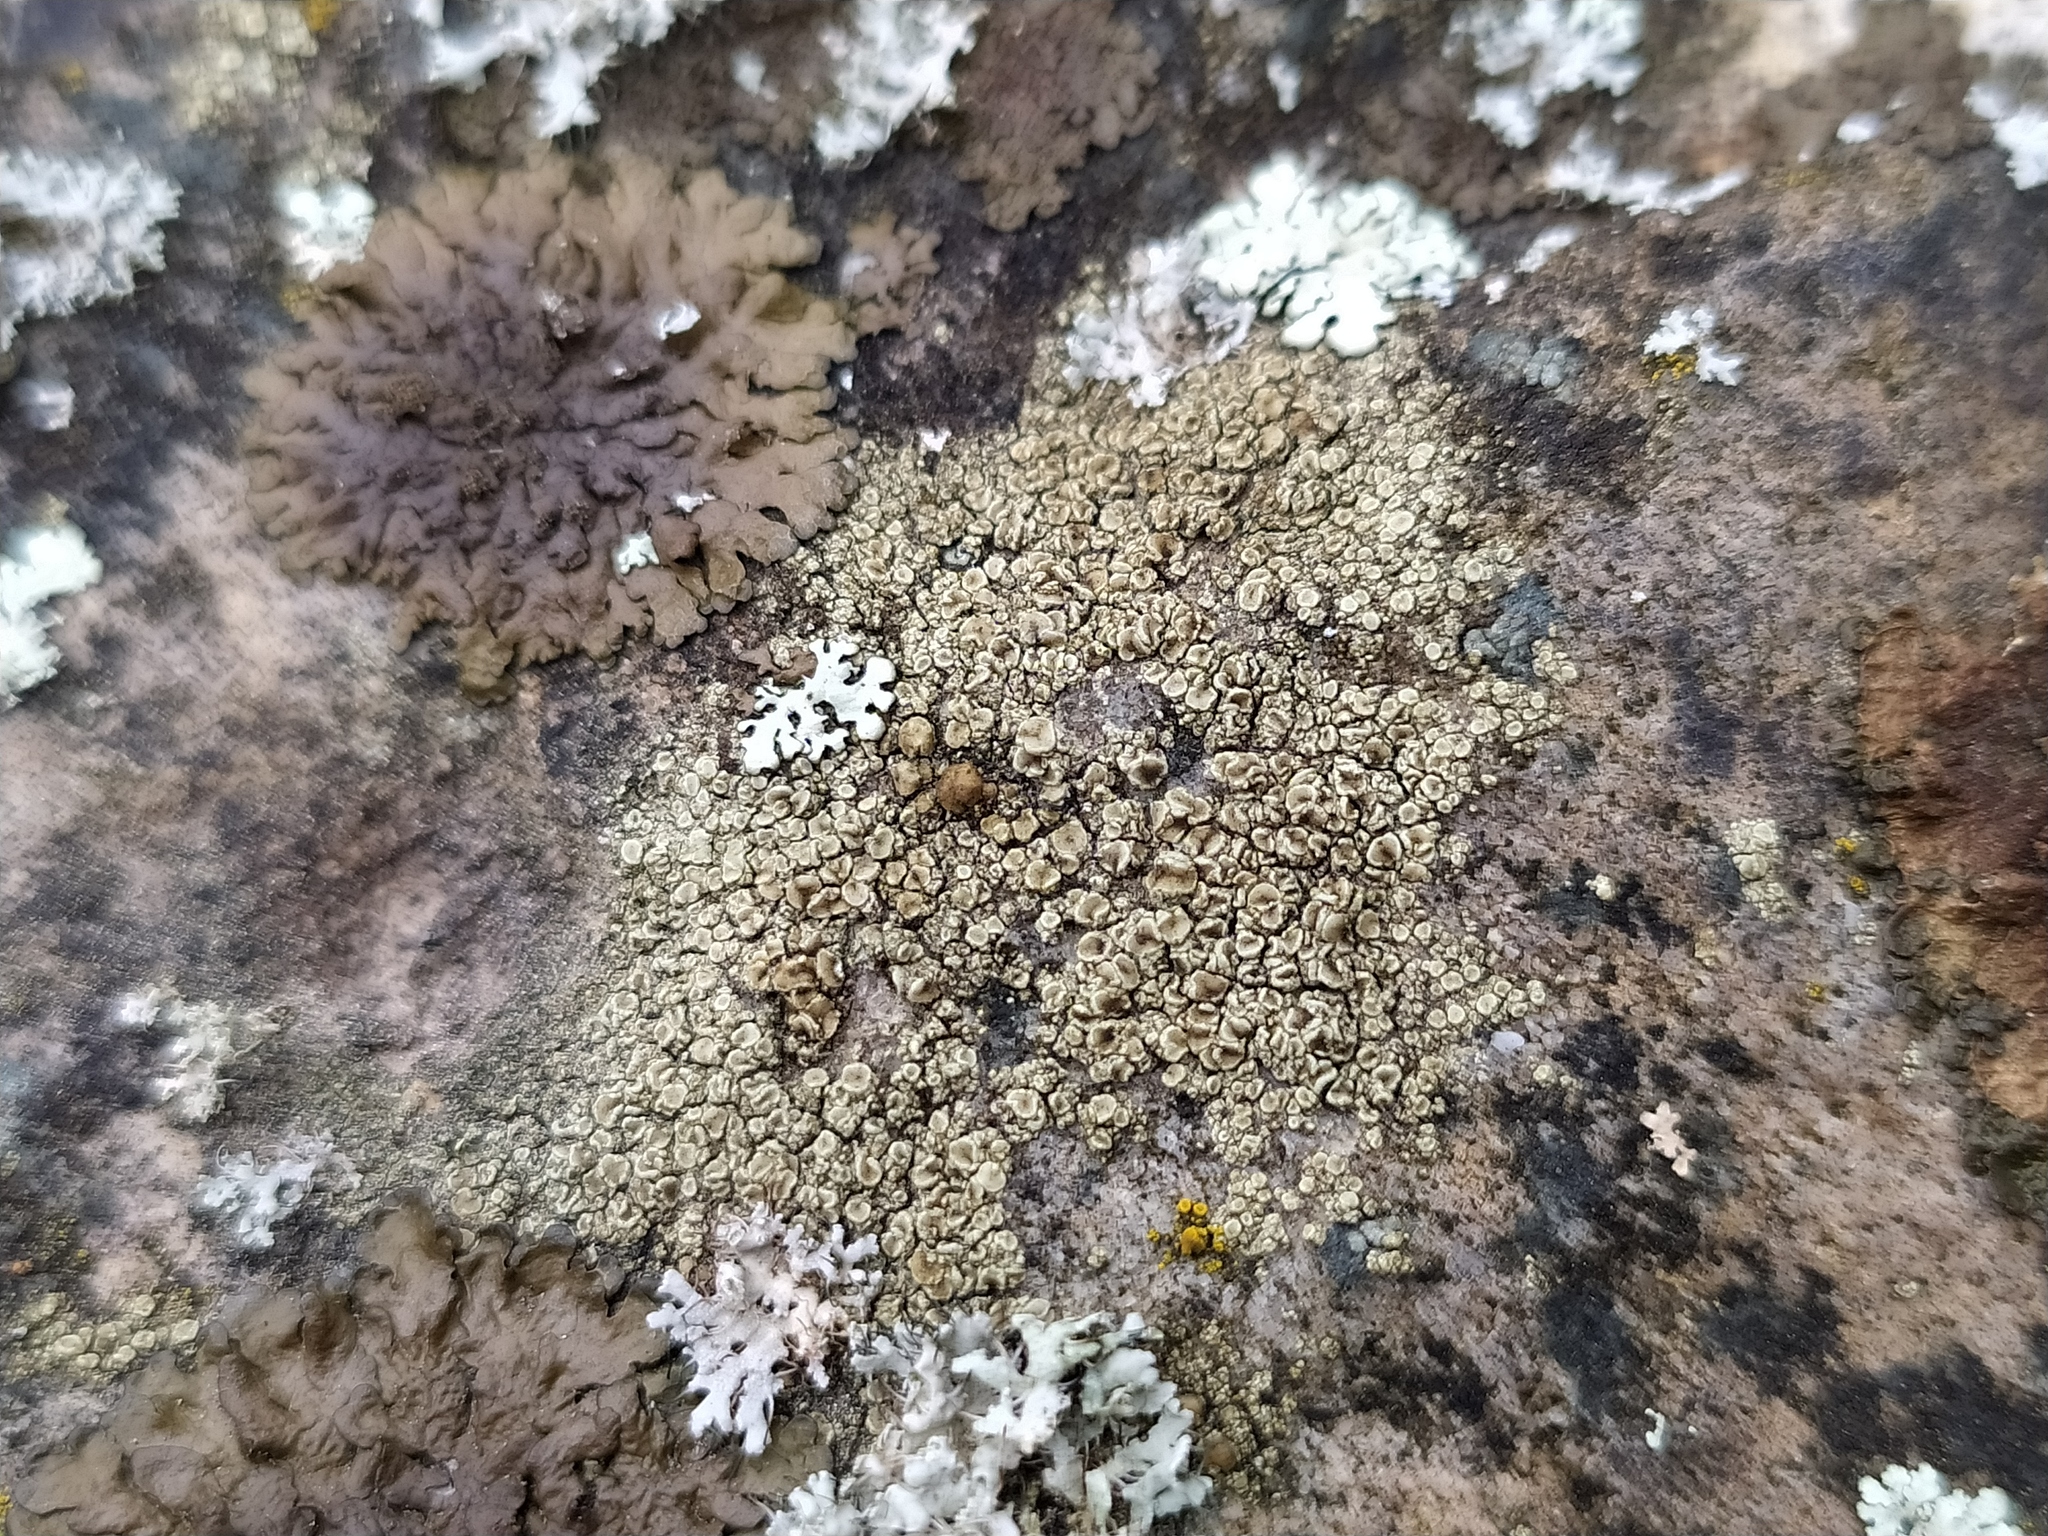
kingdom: Fungi
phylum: Ascomycota
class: Lecanoromycetes
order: Lecanorales
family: Lecanoraceae
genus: Lecanora
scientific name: Lecanora polytropa
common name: Granite-speck rim lichen
